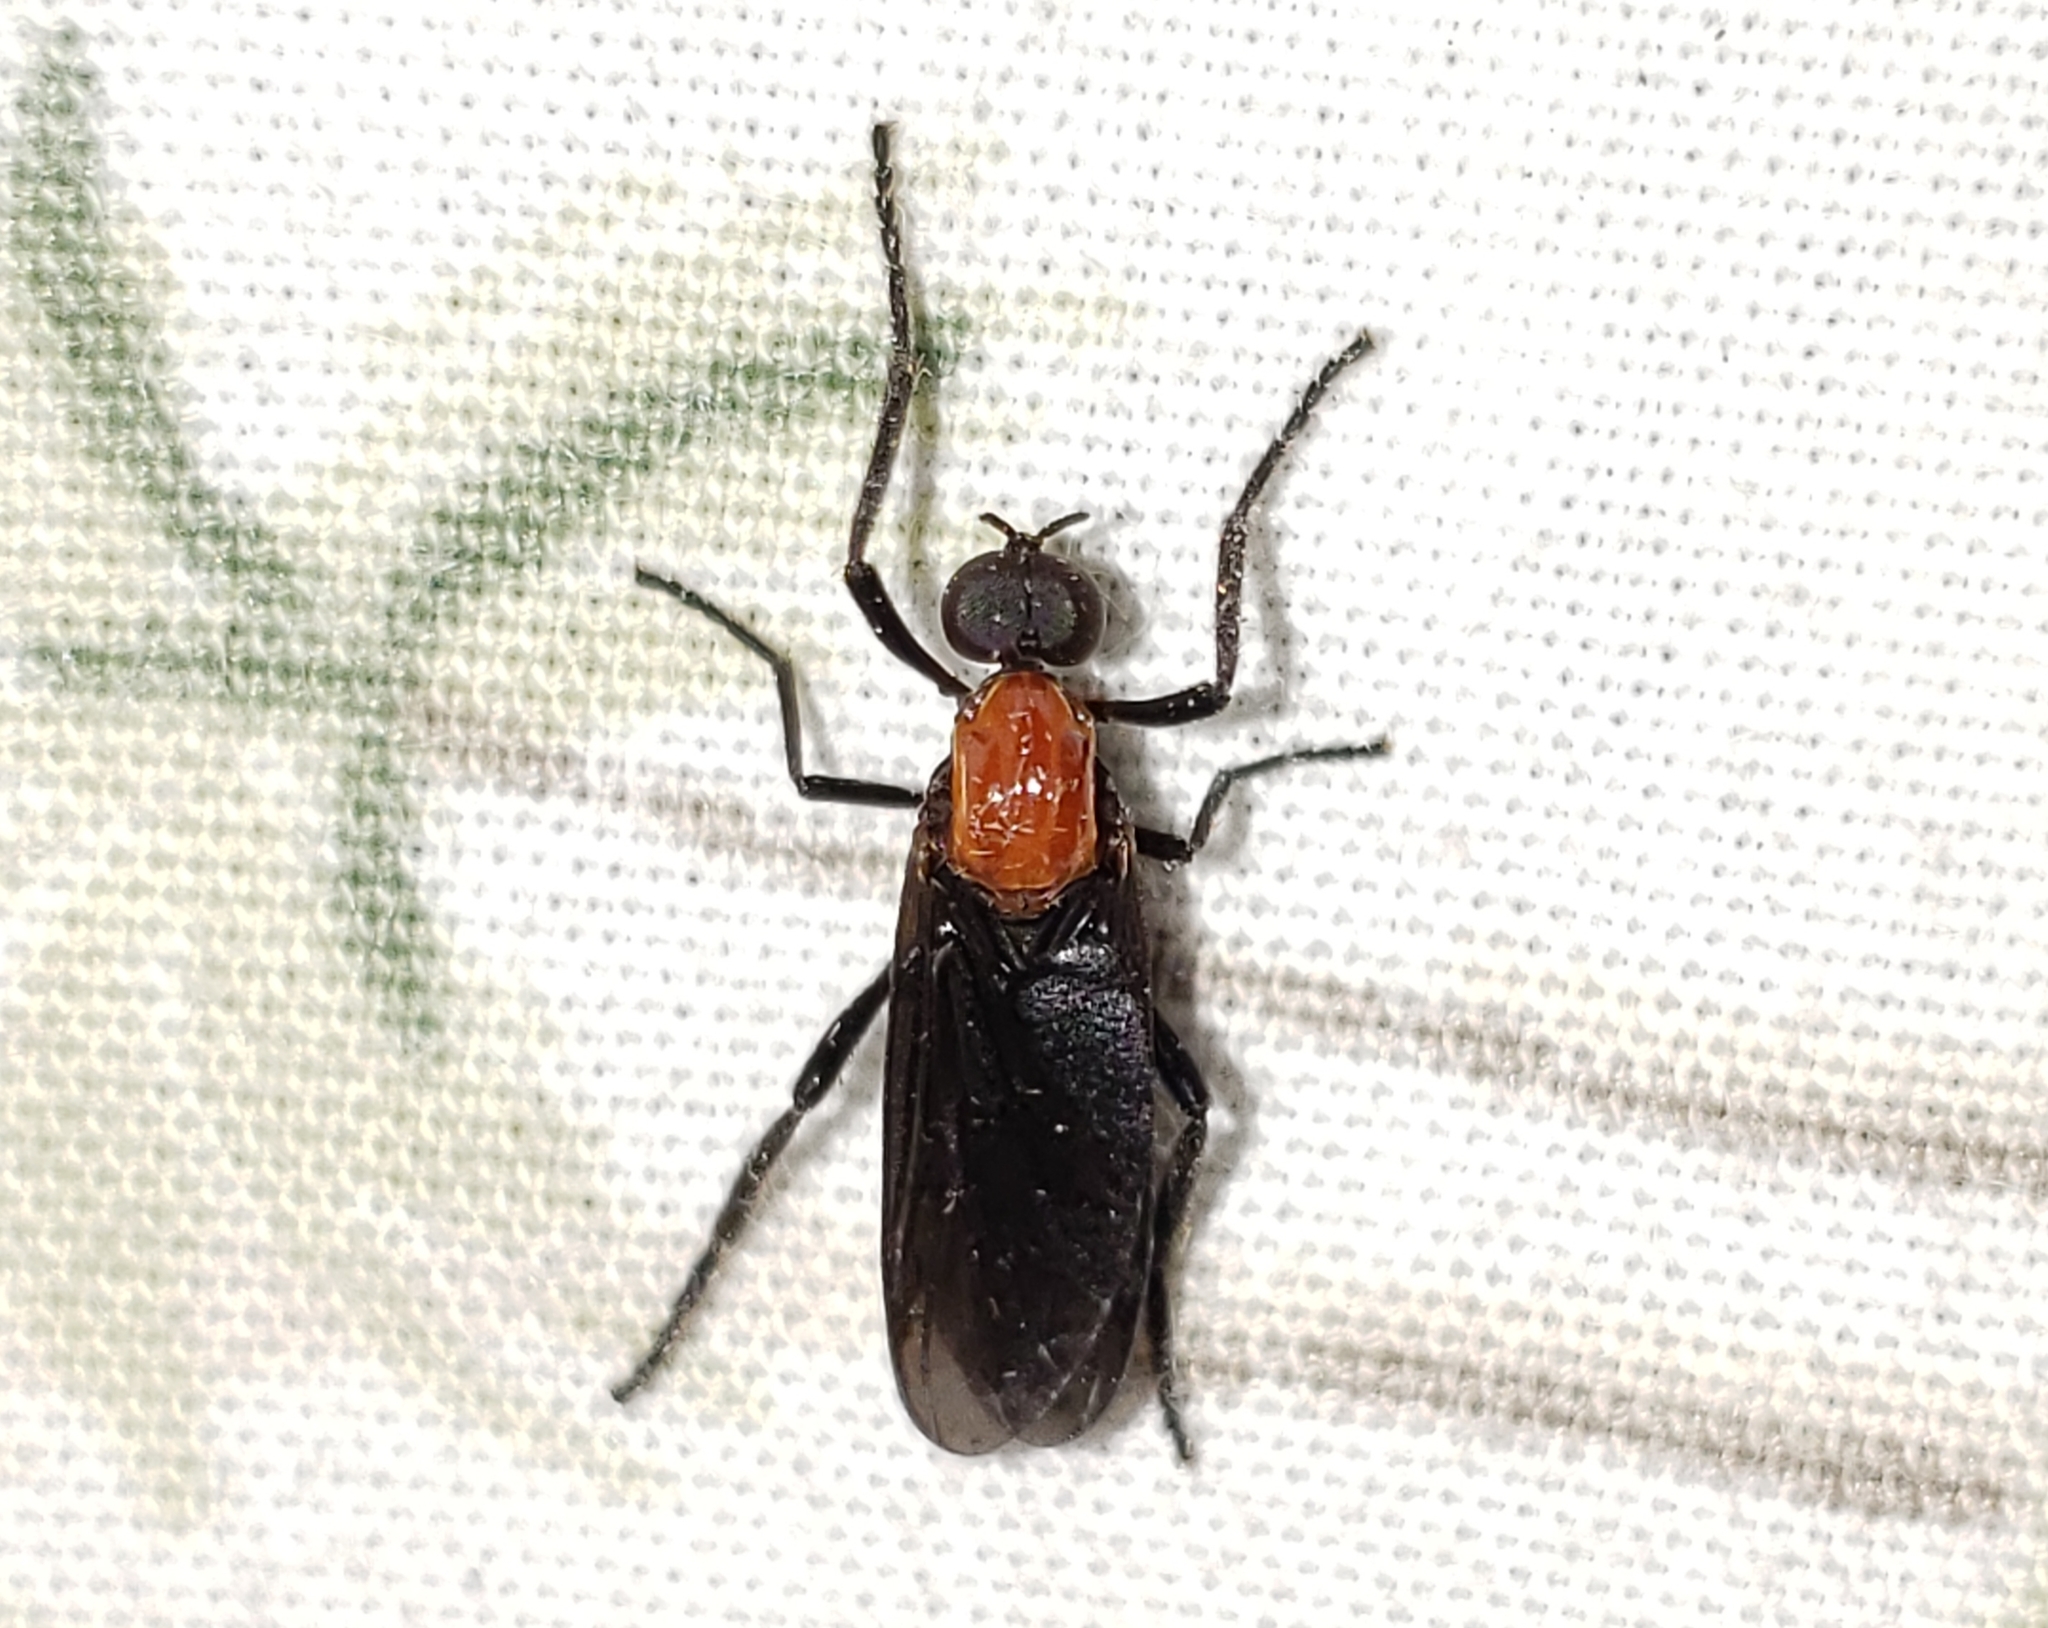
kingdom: Animalia
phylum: Arthropoda
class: Insecta
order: Diptera
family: Bibionidae
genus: Plecia
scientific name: Plecia nearctica
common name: March fly
